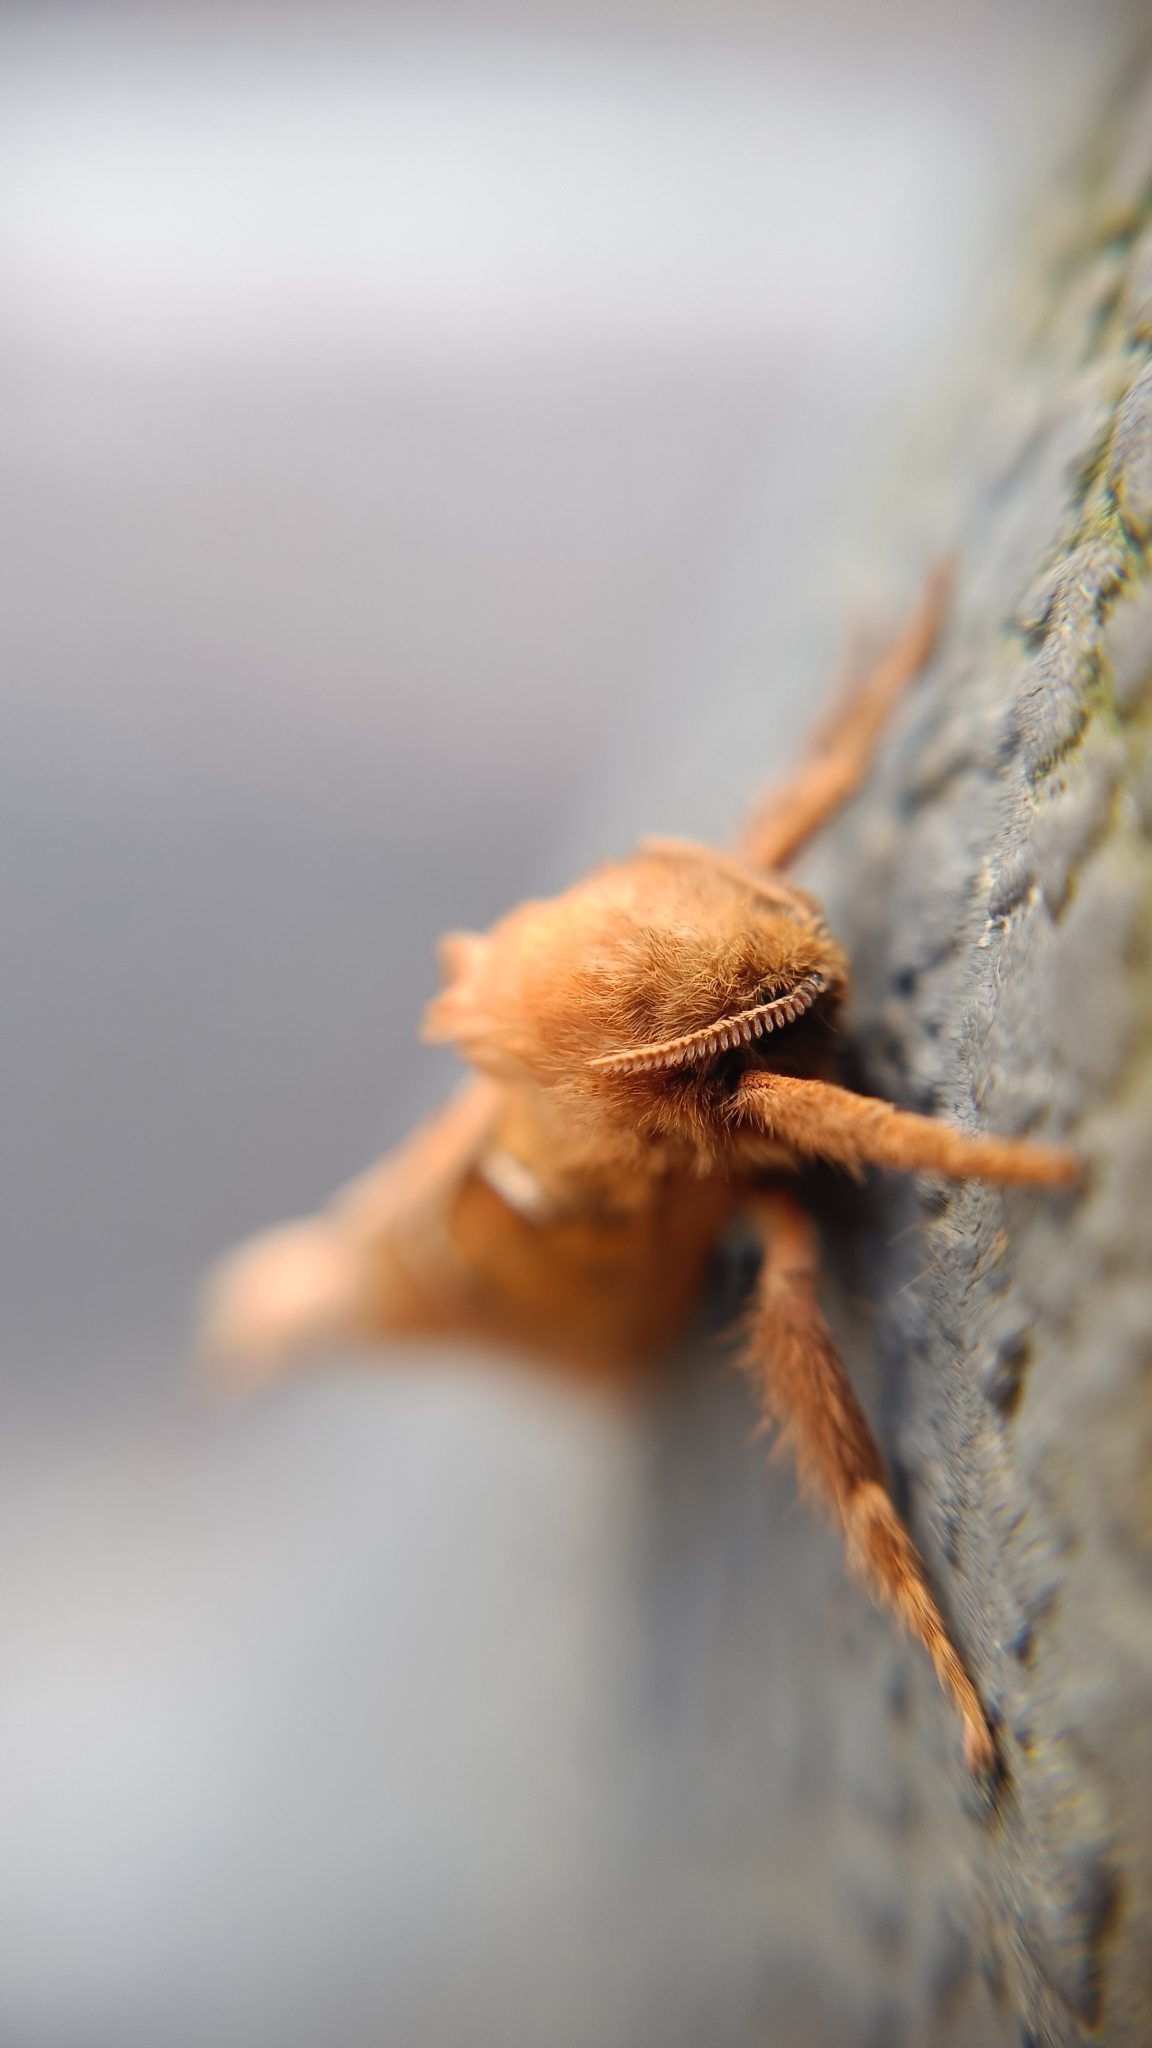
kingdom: Animalia
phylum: Arthropoda
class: Insecta
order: Lepidoptera
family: Hepialidae
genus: Triodia
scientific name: Triodia sylvina
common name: Orange swift
